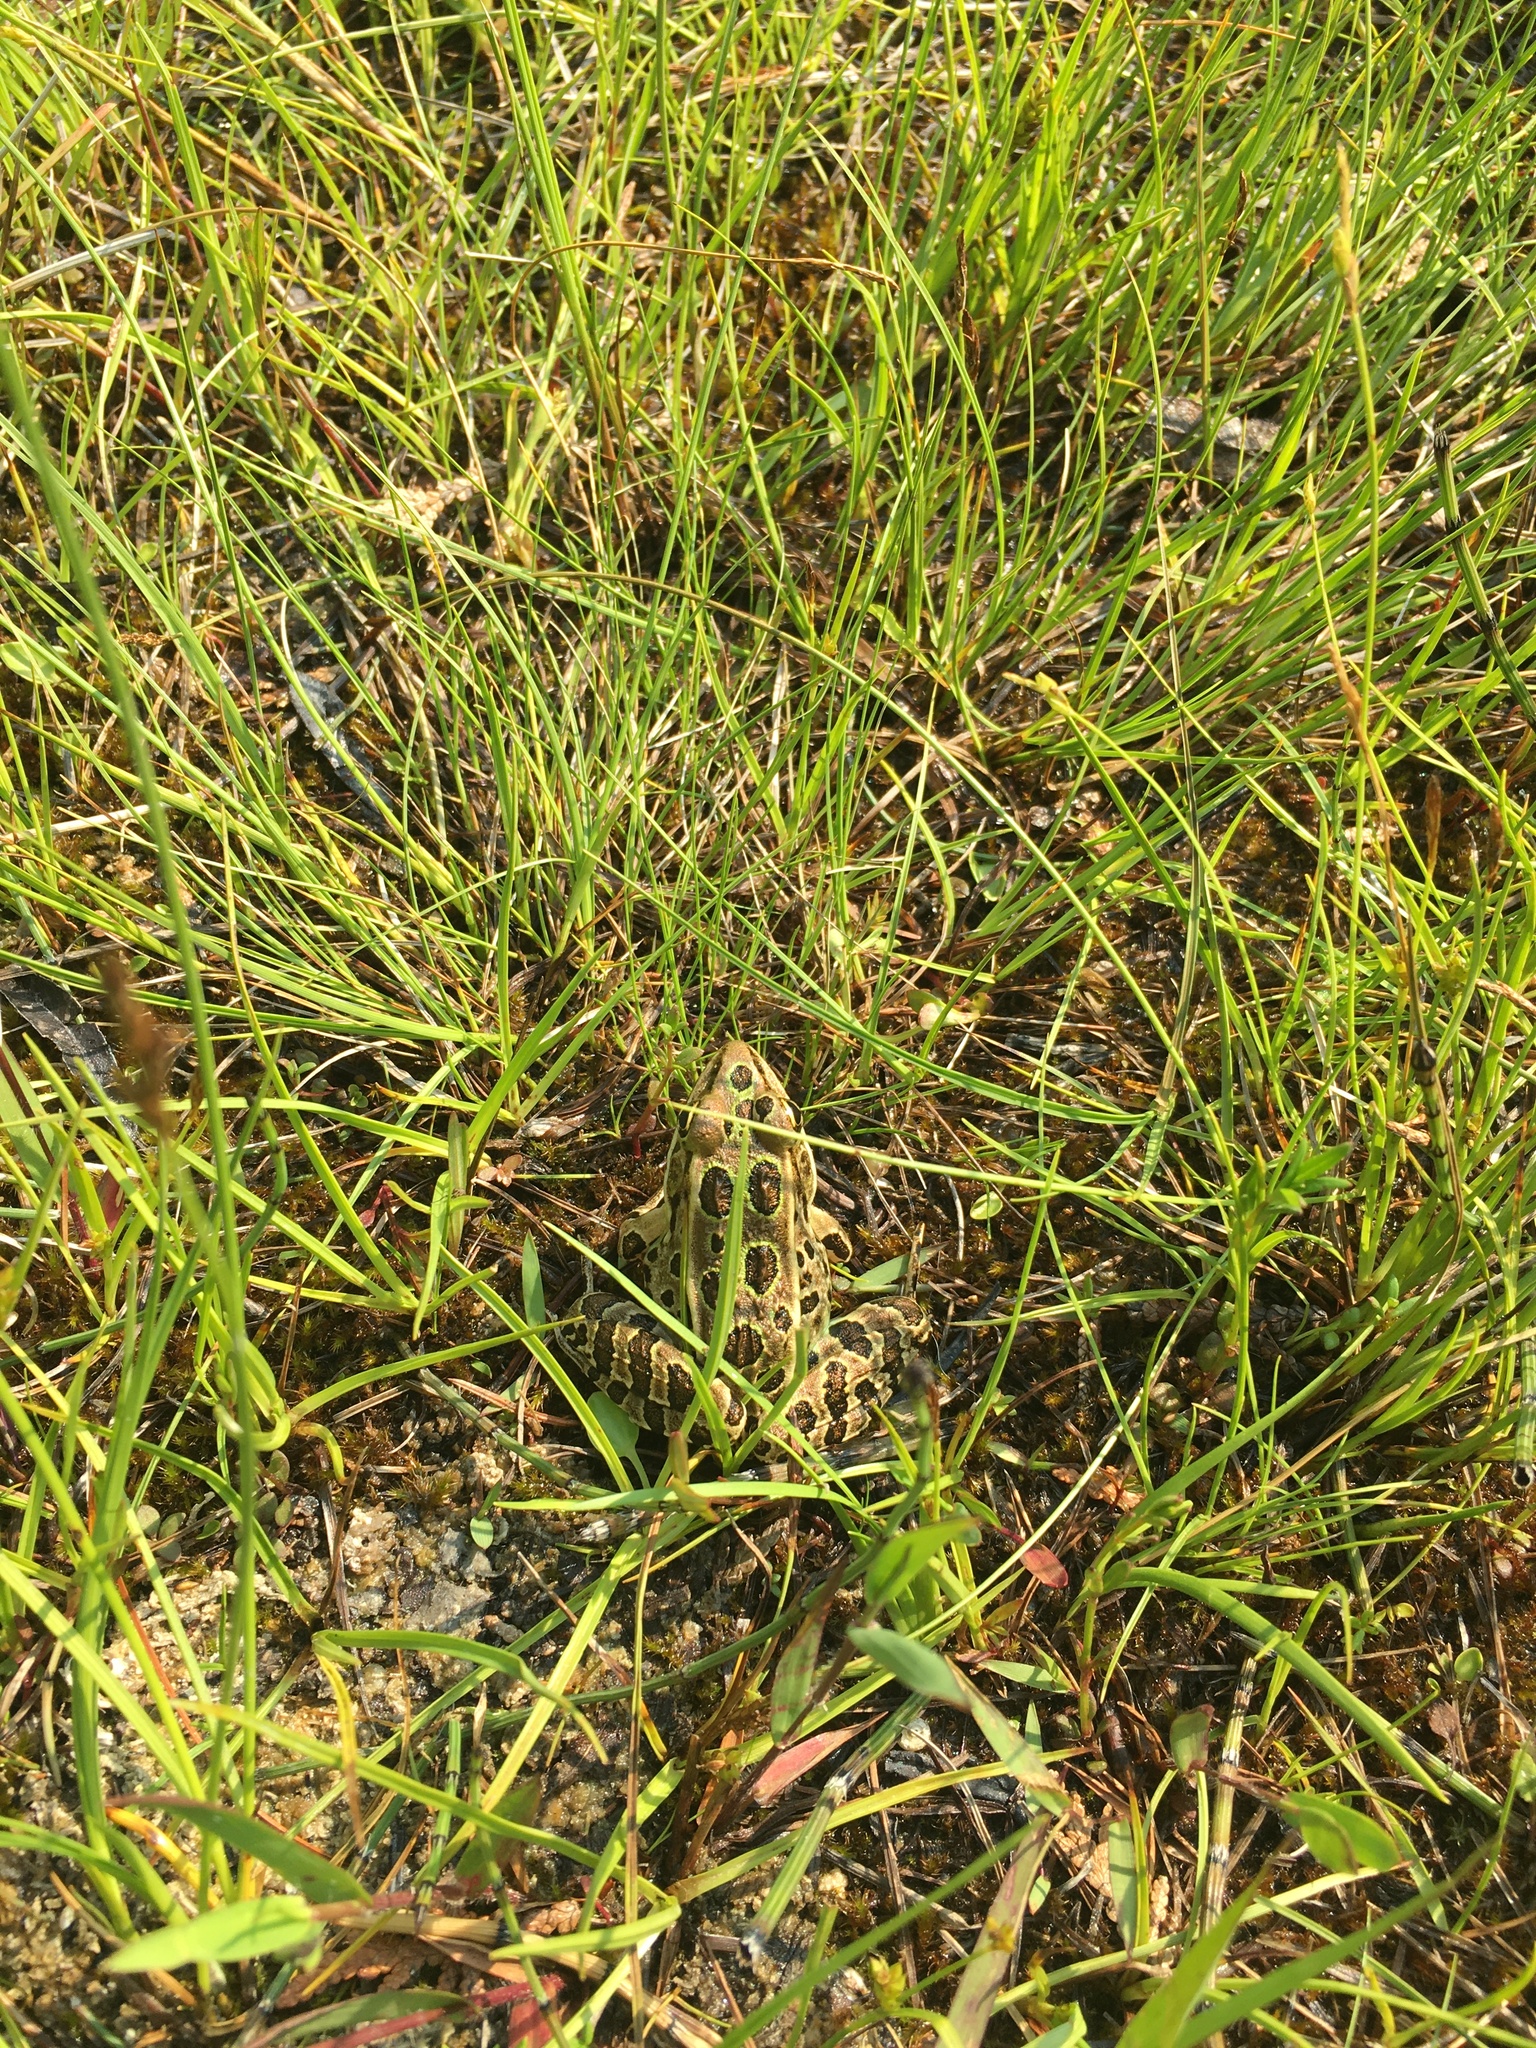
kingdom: Animalia
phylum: Chordata
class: Amphibia
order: Anura
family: Ranidae
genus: Lithobates
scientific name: Lithobates pipiens
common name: Northern leopard frog
